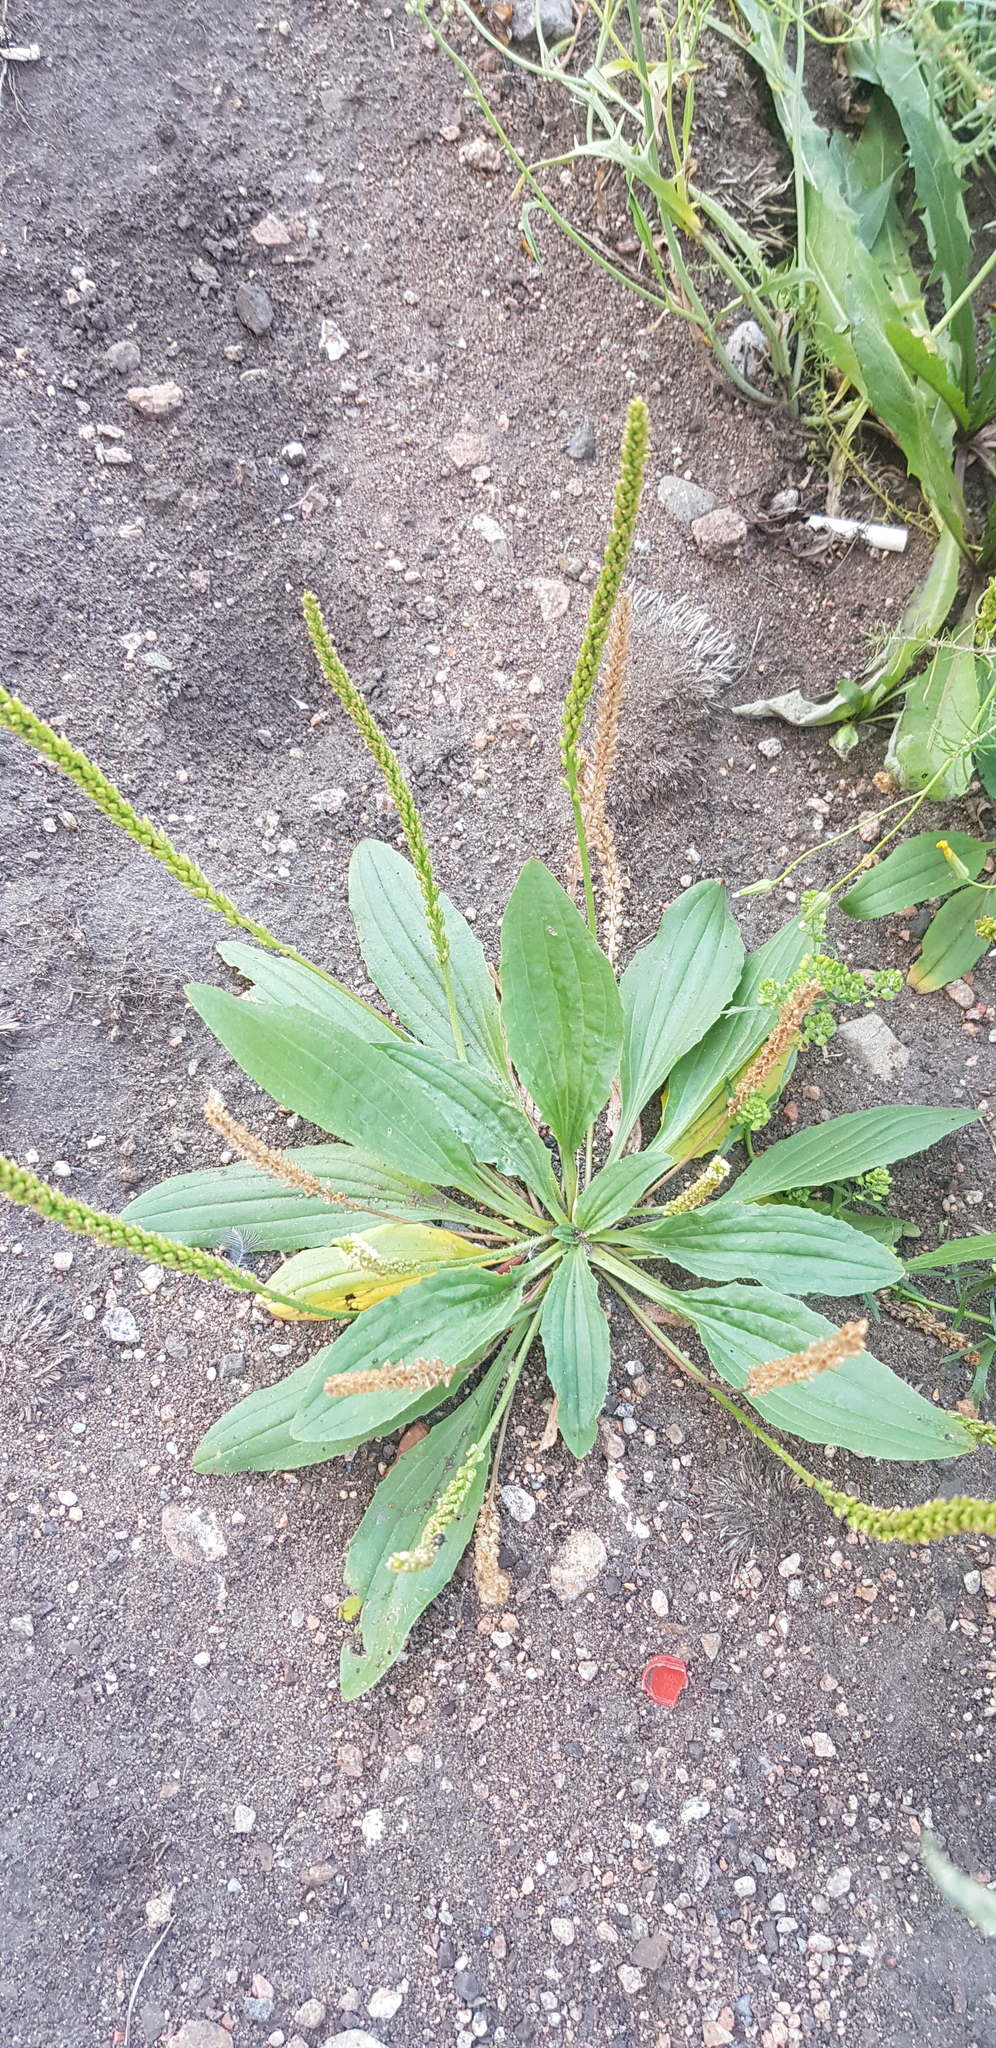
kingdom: Plantae
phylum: Tracheophyta
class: Magnoliopsida
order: Lamiales
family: Plantaginaceae
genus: Plantago
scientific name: Plantago depressa
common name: Depressed plantain
